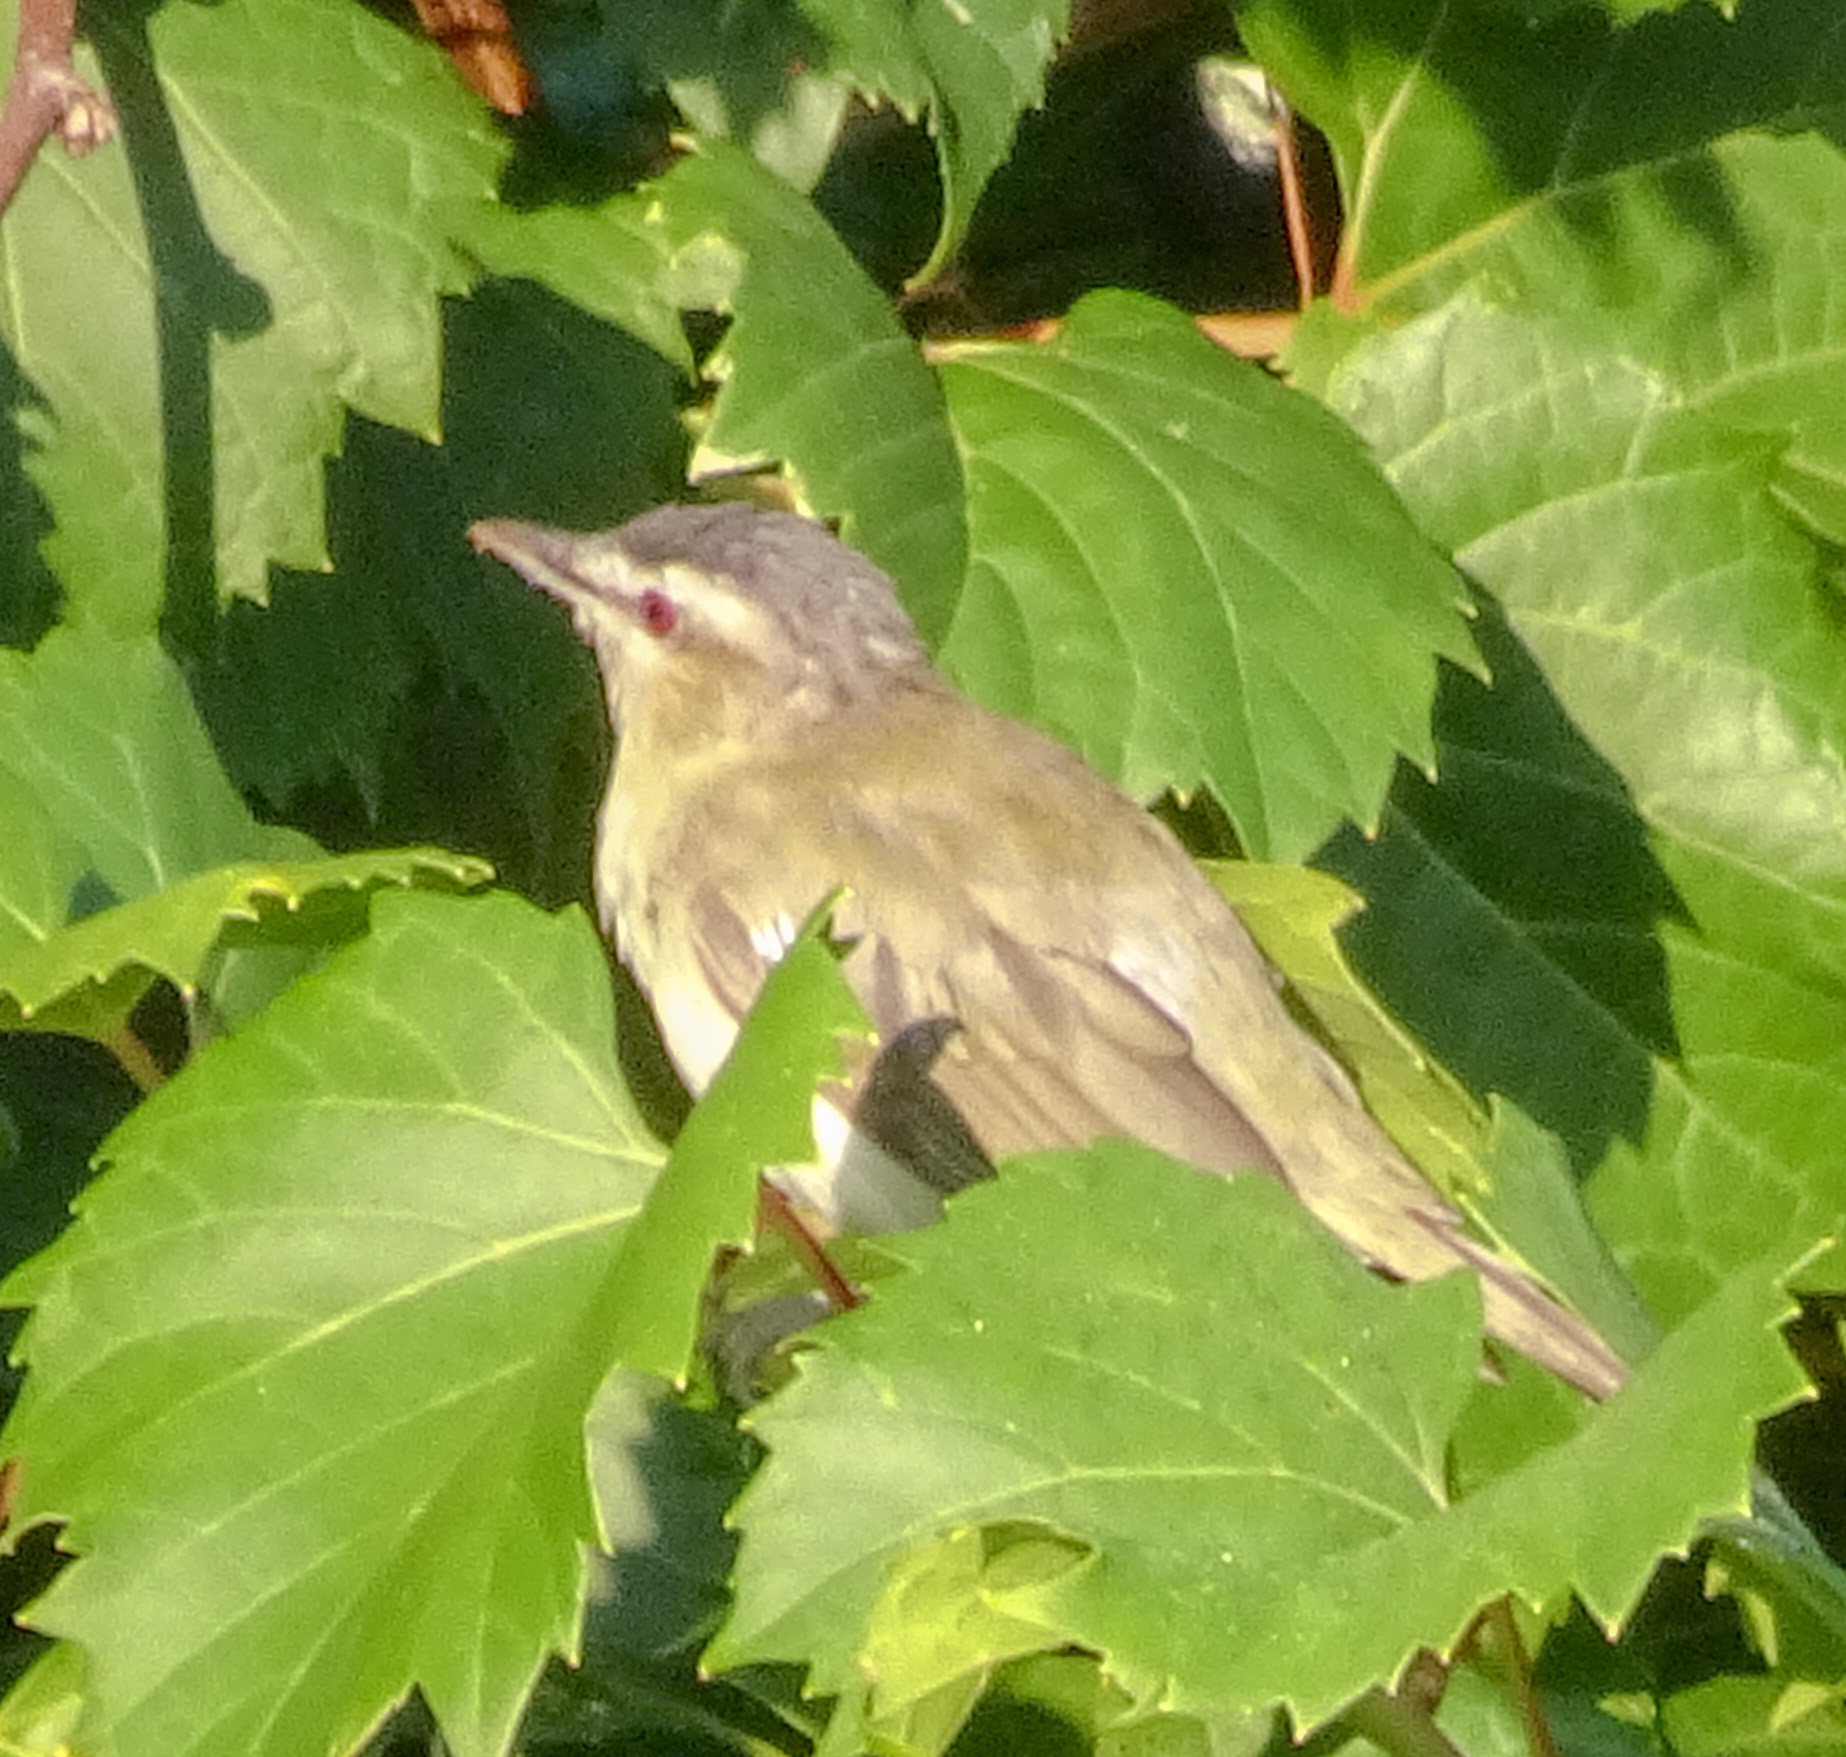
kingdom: Animalia
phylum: Chordata
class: Aves
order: Passeriformes
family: Vireonidae
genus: Vireo
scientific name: Vireo olivaceus
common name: Red-eyed vireo
